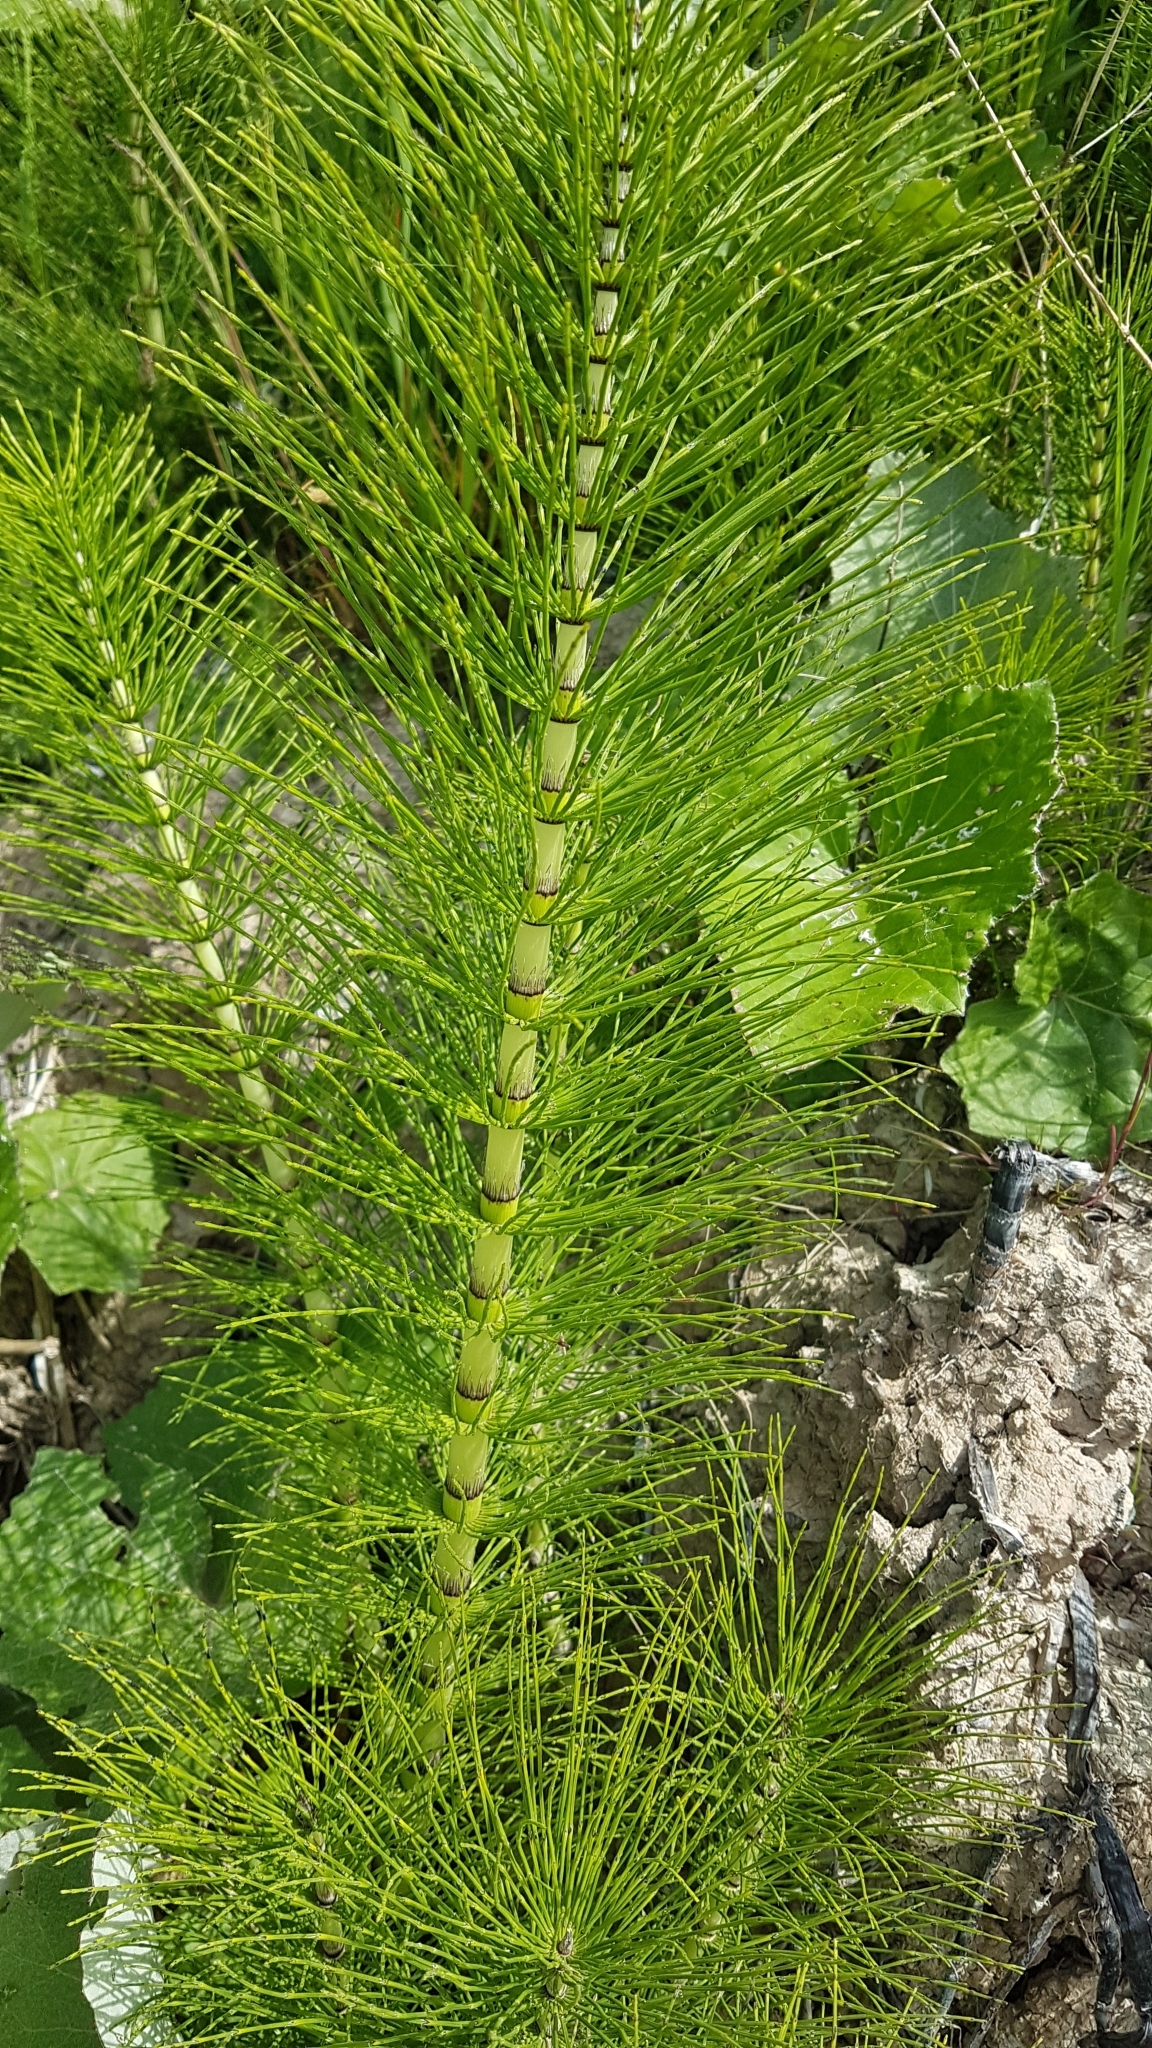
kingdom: Plantae
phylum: Tracheophyta
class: Polypodiopsida
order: Equisetales
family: Equisetaceae
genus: Equisetum
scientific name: Equisetum telmateia
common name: Great horsetail
